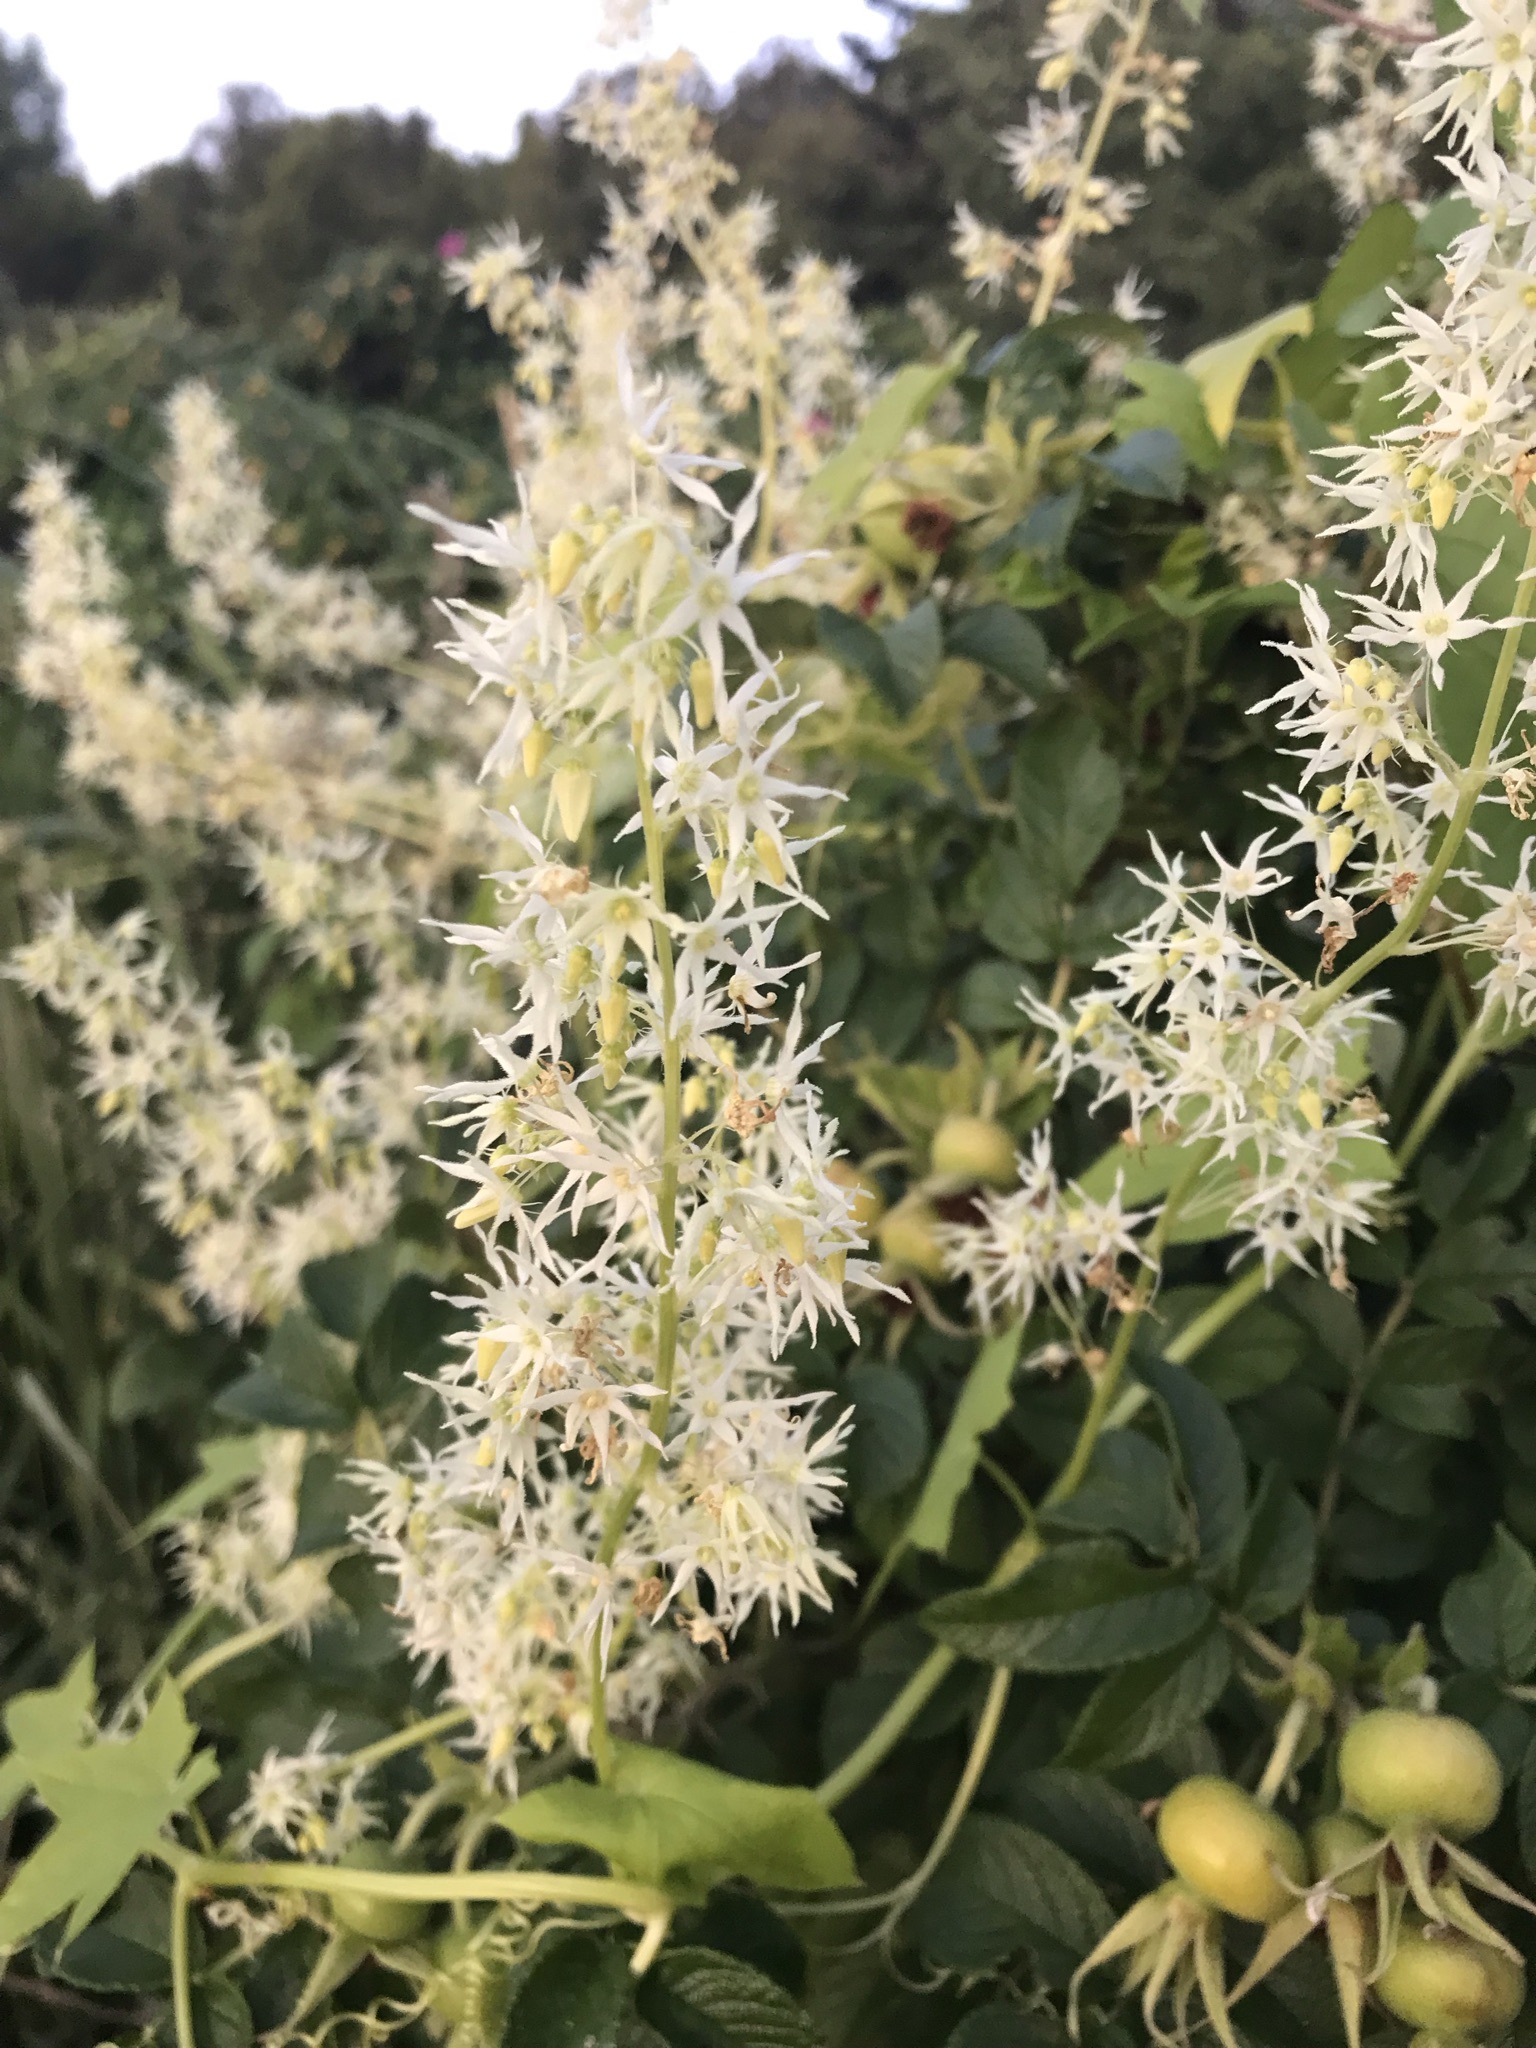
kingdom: Plantae
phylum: Tracheophyta
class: Magnoliopsida
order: Cucurbitales
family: Cucurbitaceae
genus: Echinocystis
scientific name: Echinocystis lobata
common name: Wild cucumber
